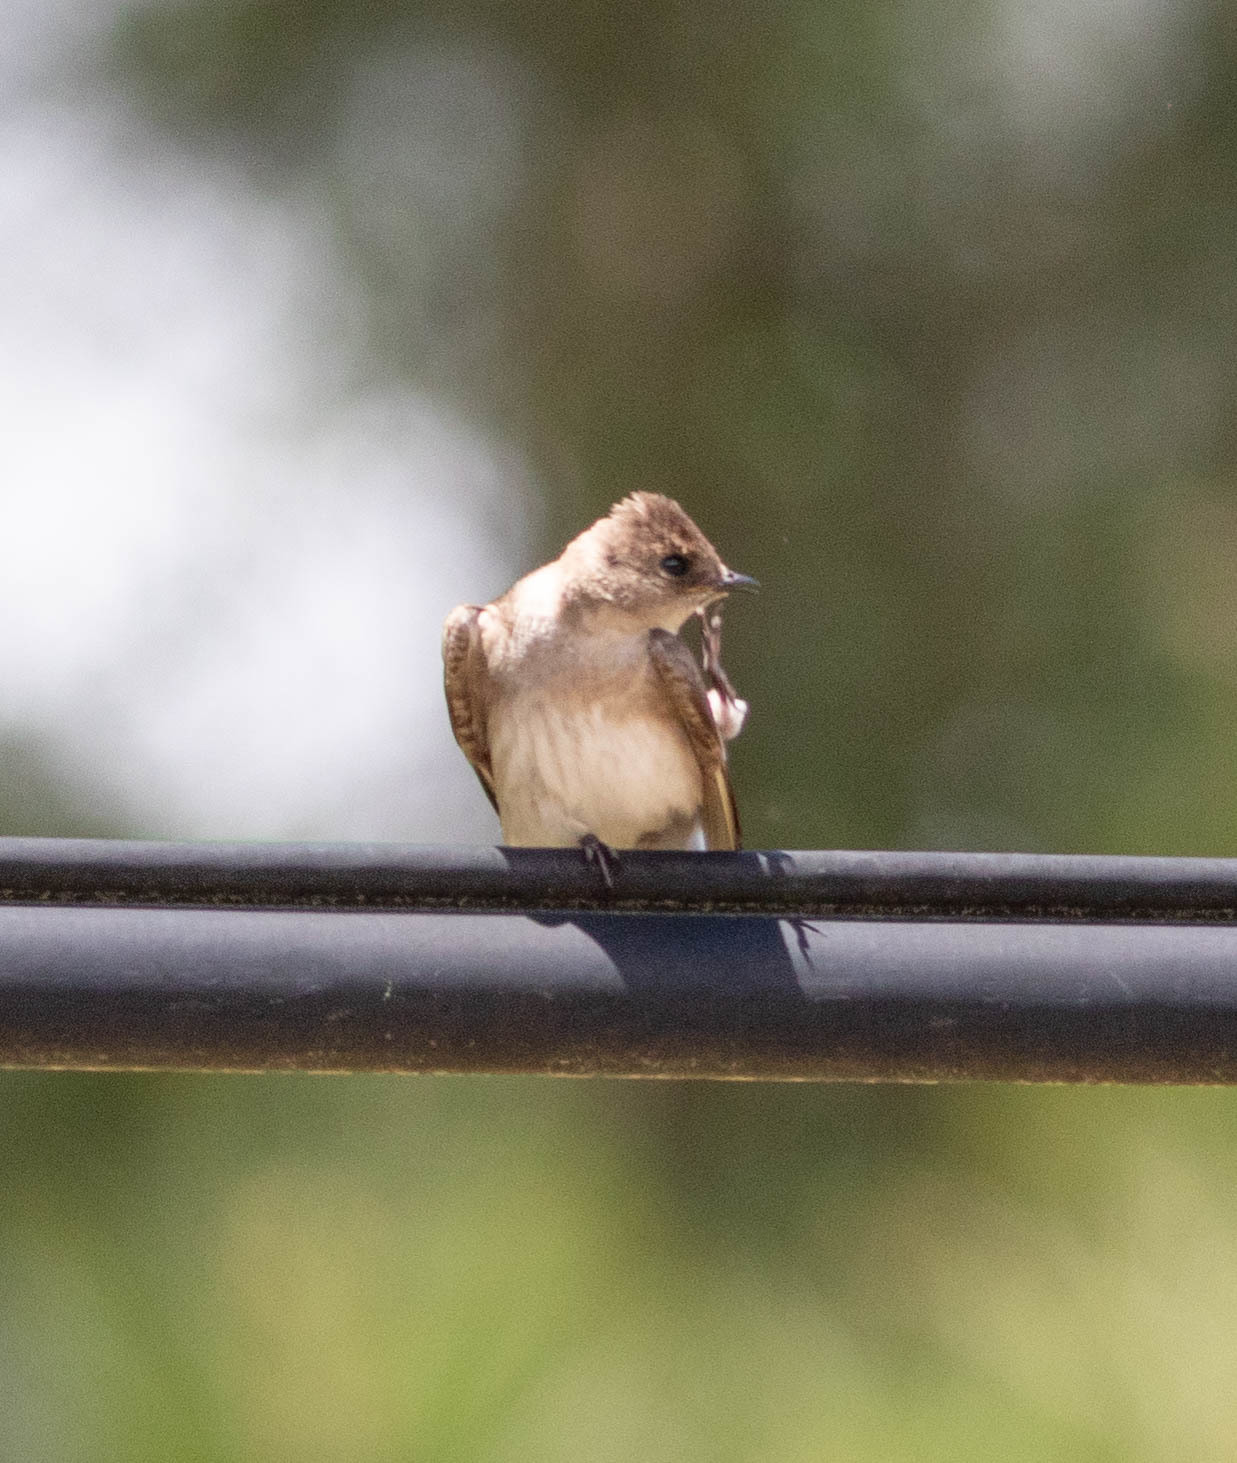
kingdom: Animalia
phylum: Chordata
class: Aves
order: Passeriformes
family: Hirundinidae
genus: Stelgidopteryx
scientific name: Stelgidopteryx serripennis
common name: Northern rough-winged swallow
